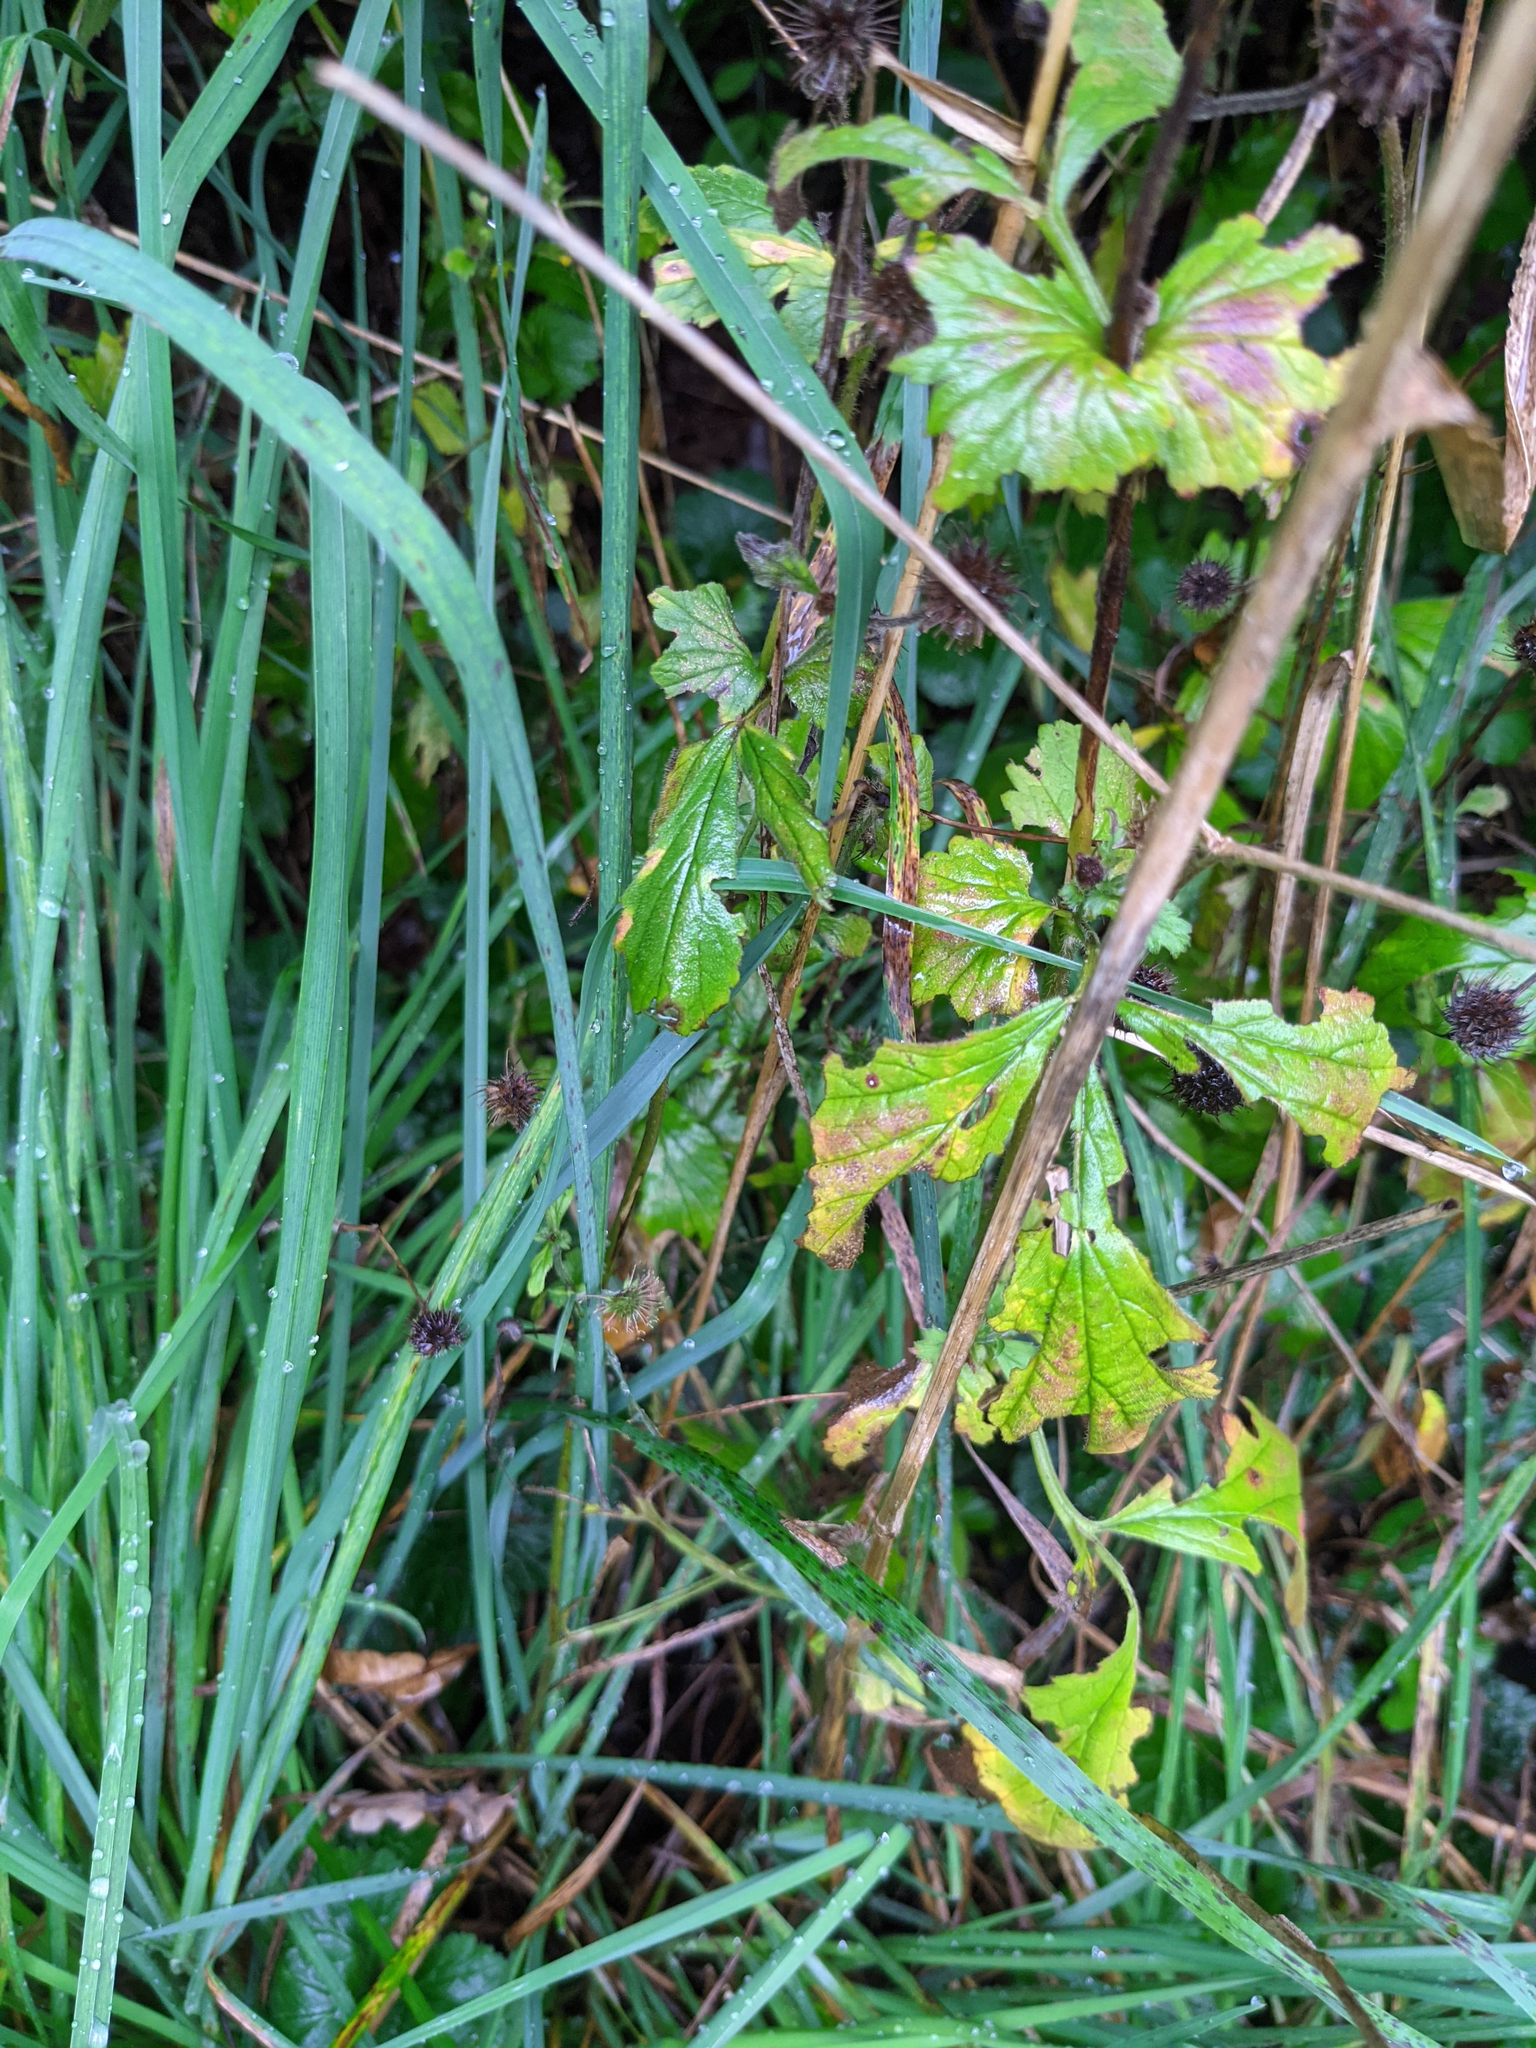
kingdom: Plantae
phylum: Tracheophyta
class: Magnoliopsida
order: Rosales
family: Rosaceae
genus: Geum
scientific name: Geum urbanum
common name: Wood avens
